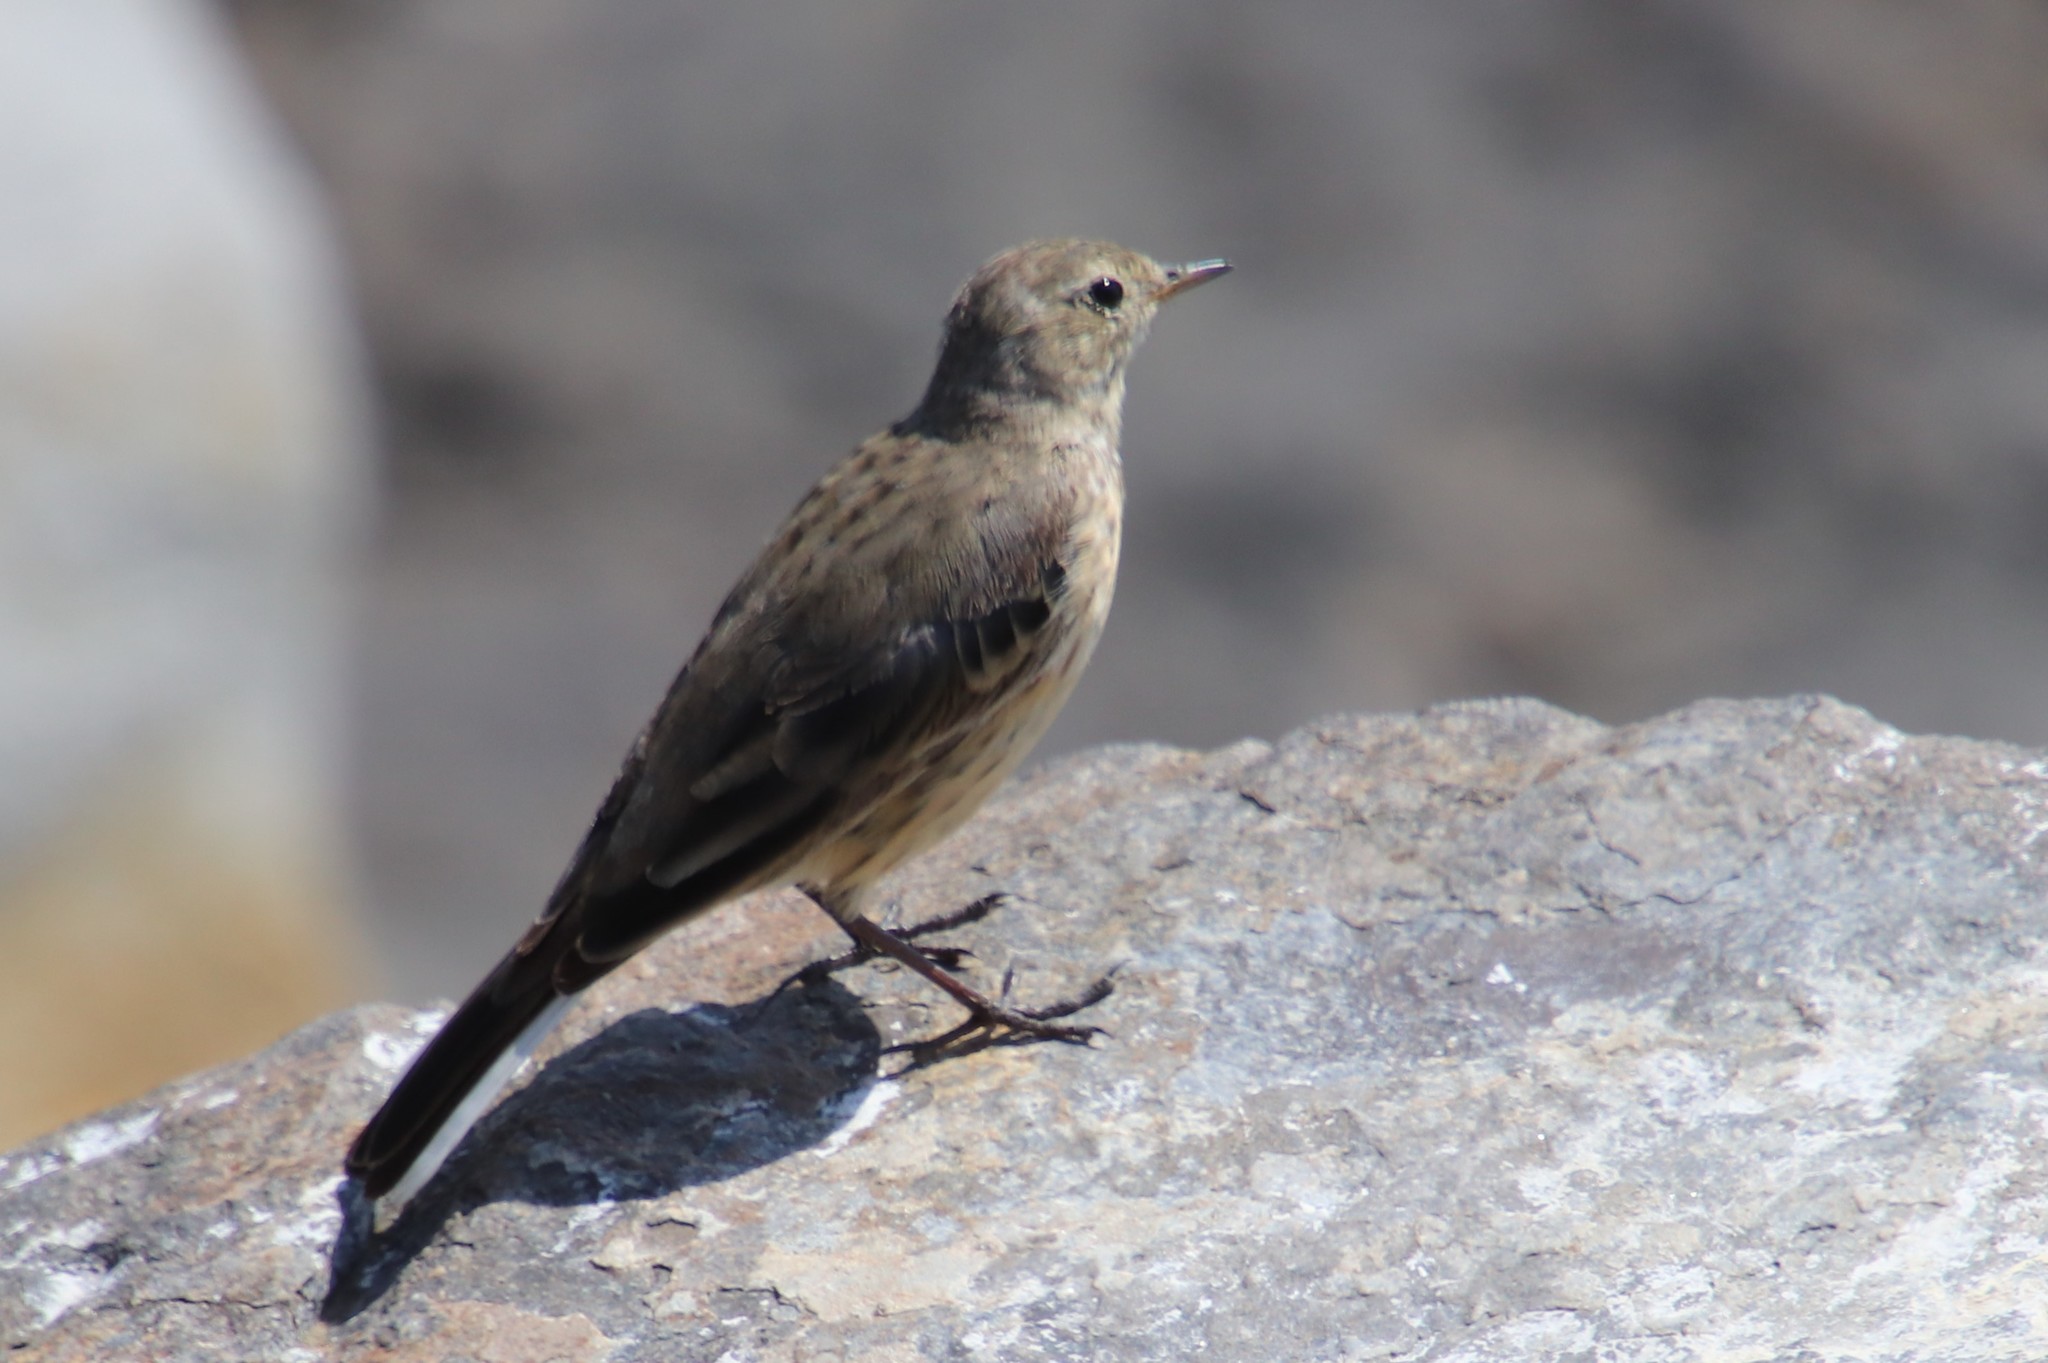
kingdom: Animalia
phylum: Chordata
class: Aves
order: Passeriformes
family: Motacillidae
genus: Anthus
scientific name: Anthus rubescens
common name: Buff-bellied pipit
